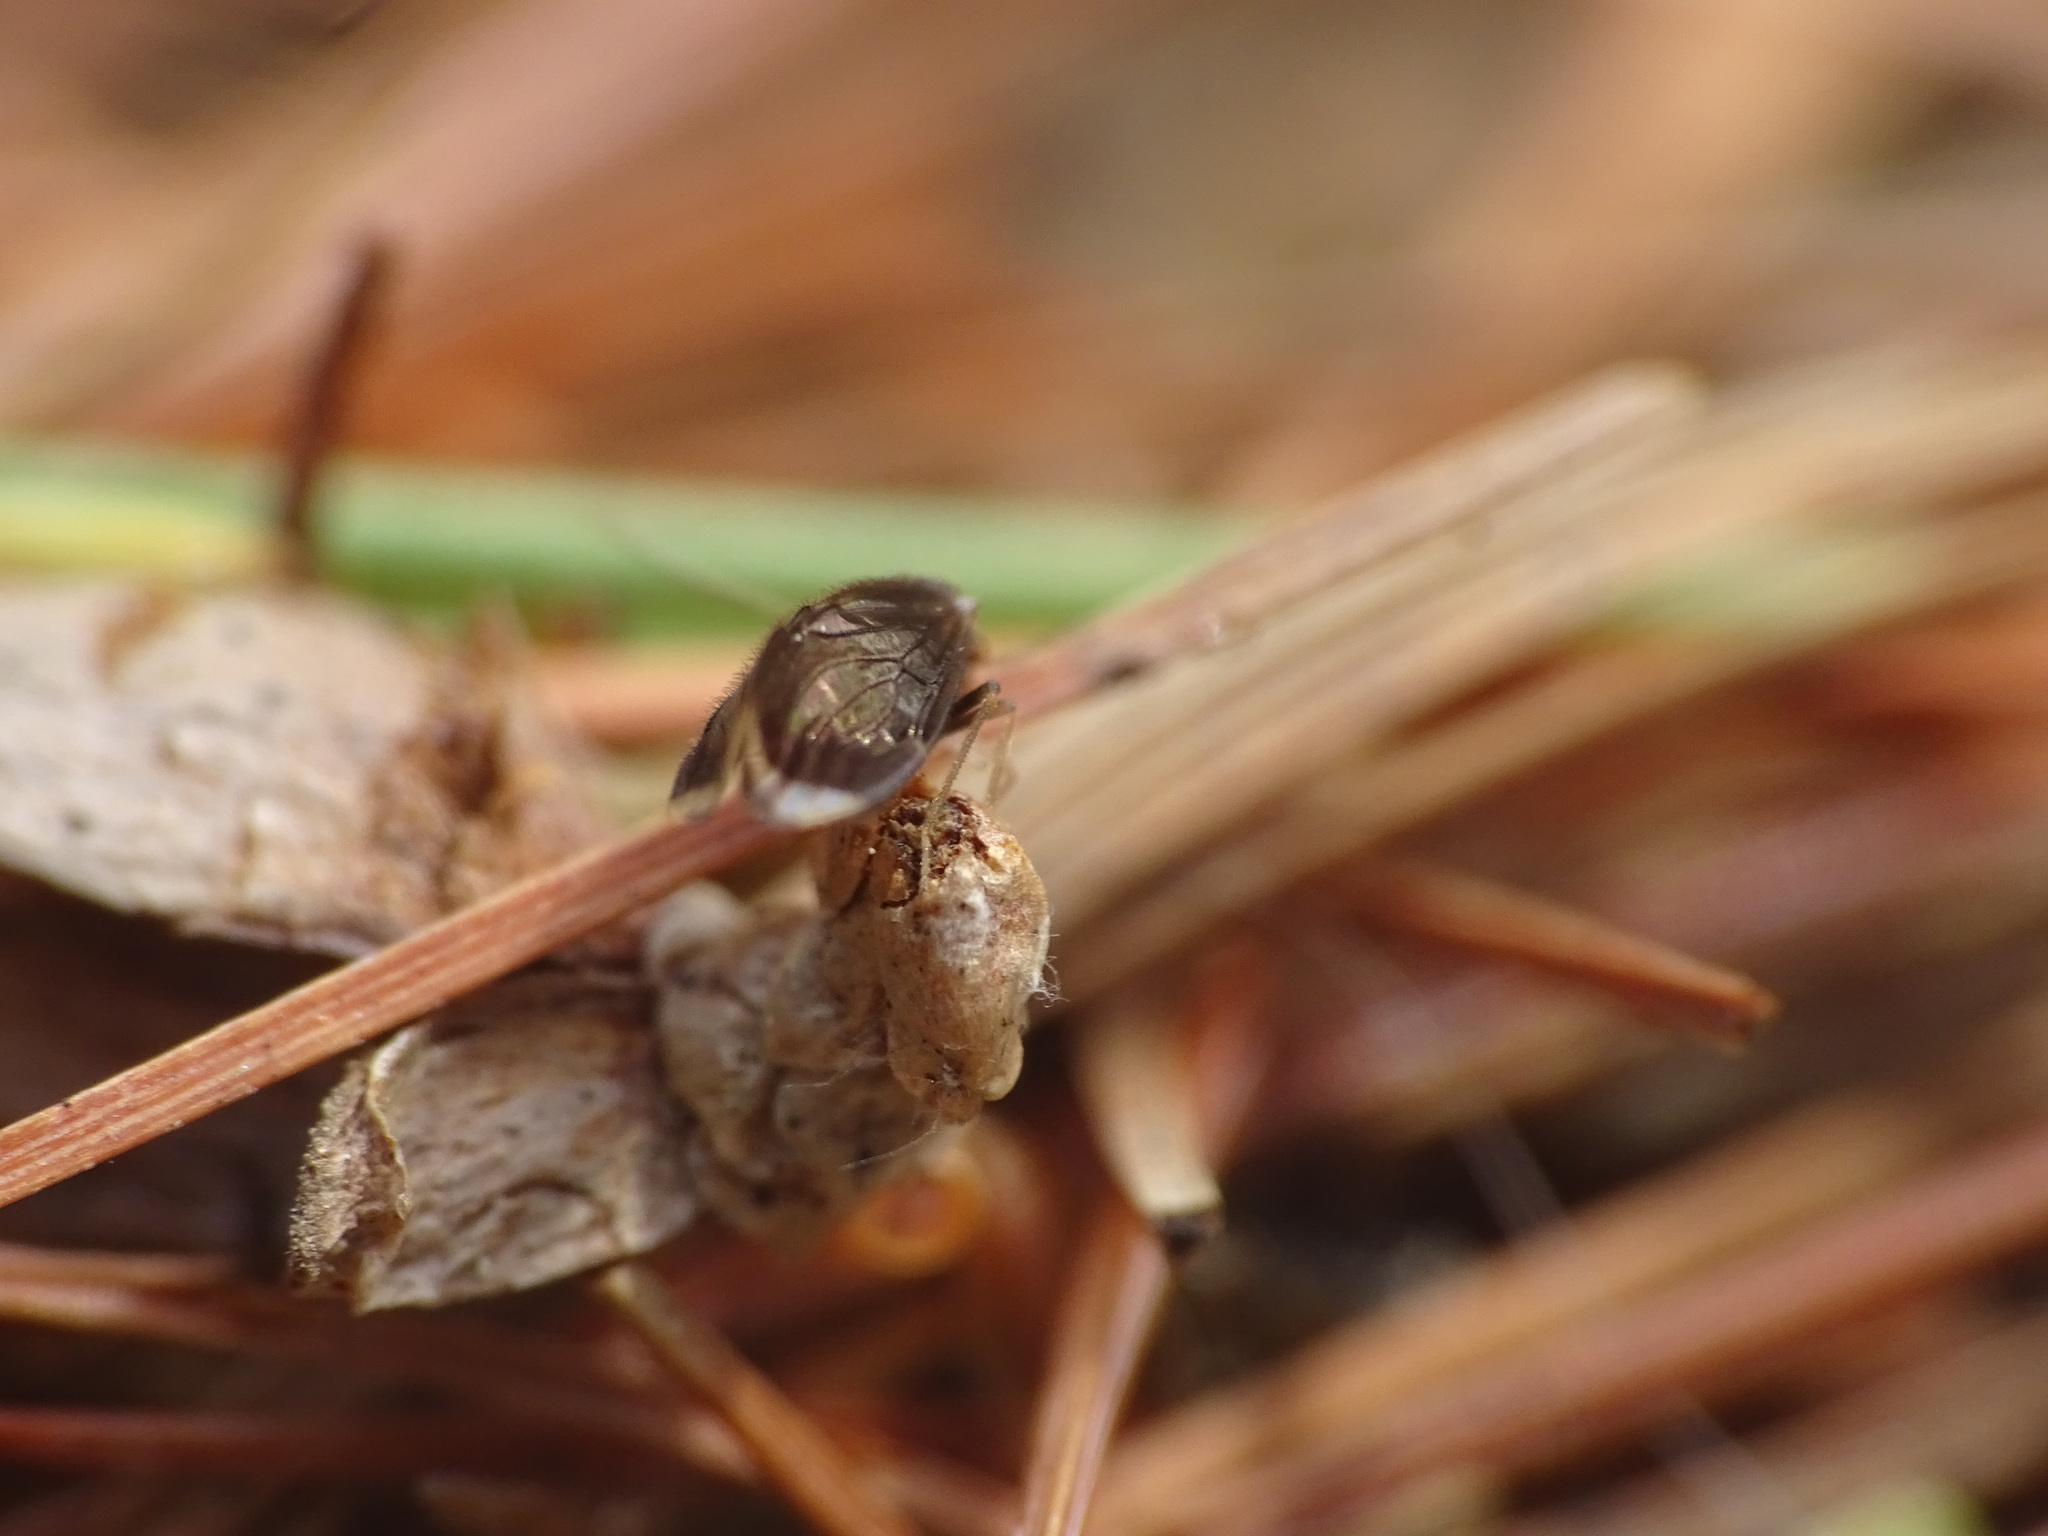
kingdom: Animalia
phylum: Arthropoda
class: Insecta
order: Psocodea
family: Amphipsocidae
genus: Polypsocus
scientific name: Polypsocus corruptus
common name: Corrupt barklouse
